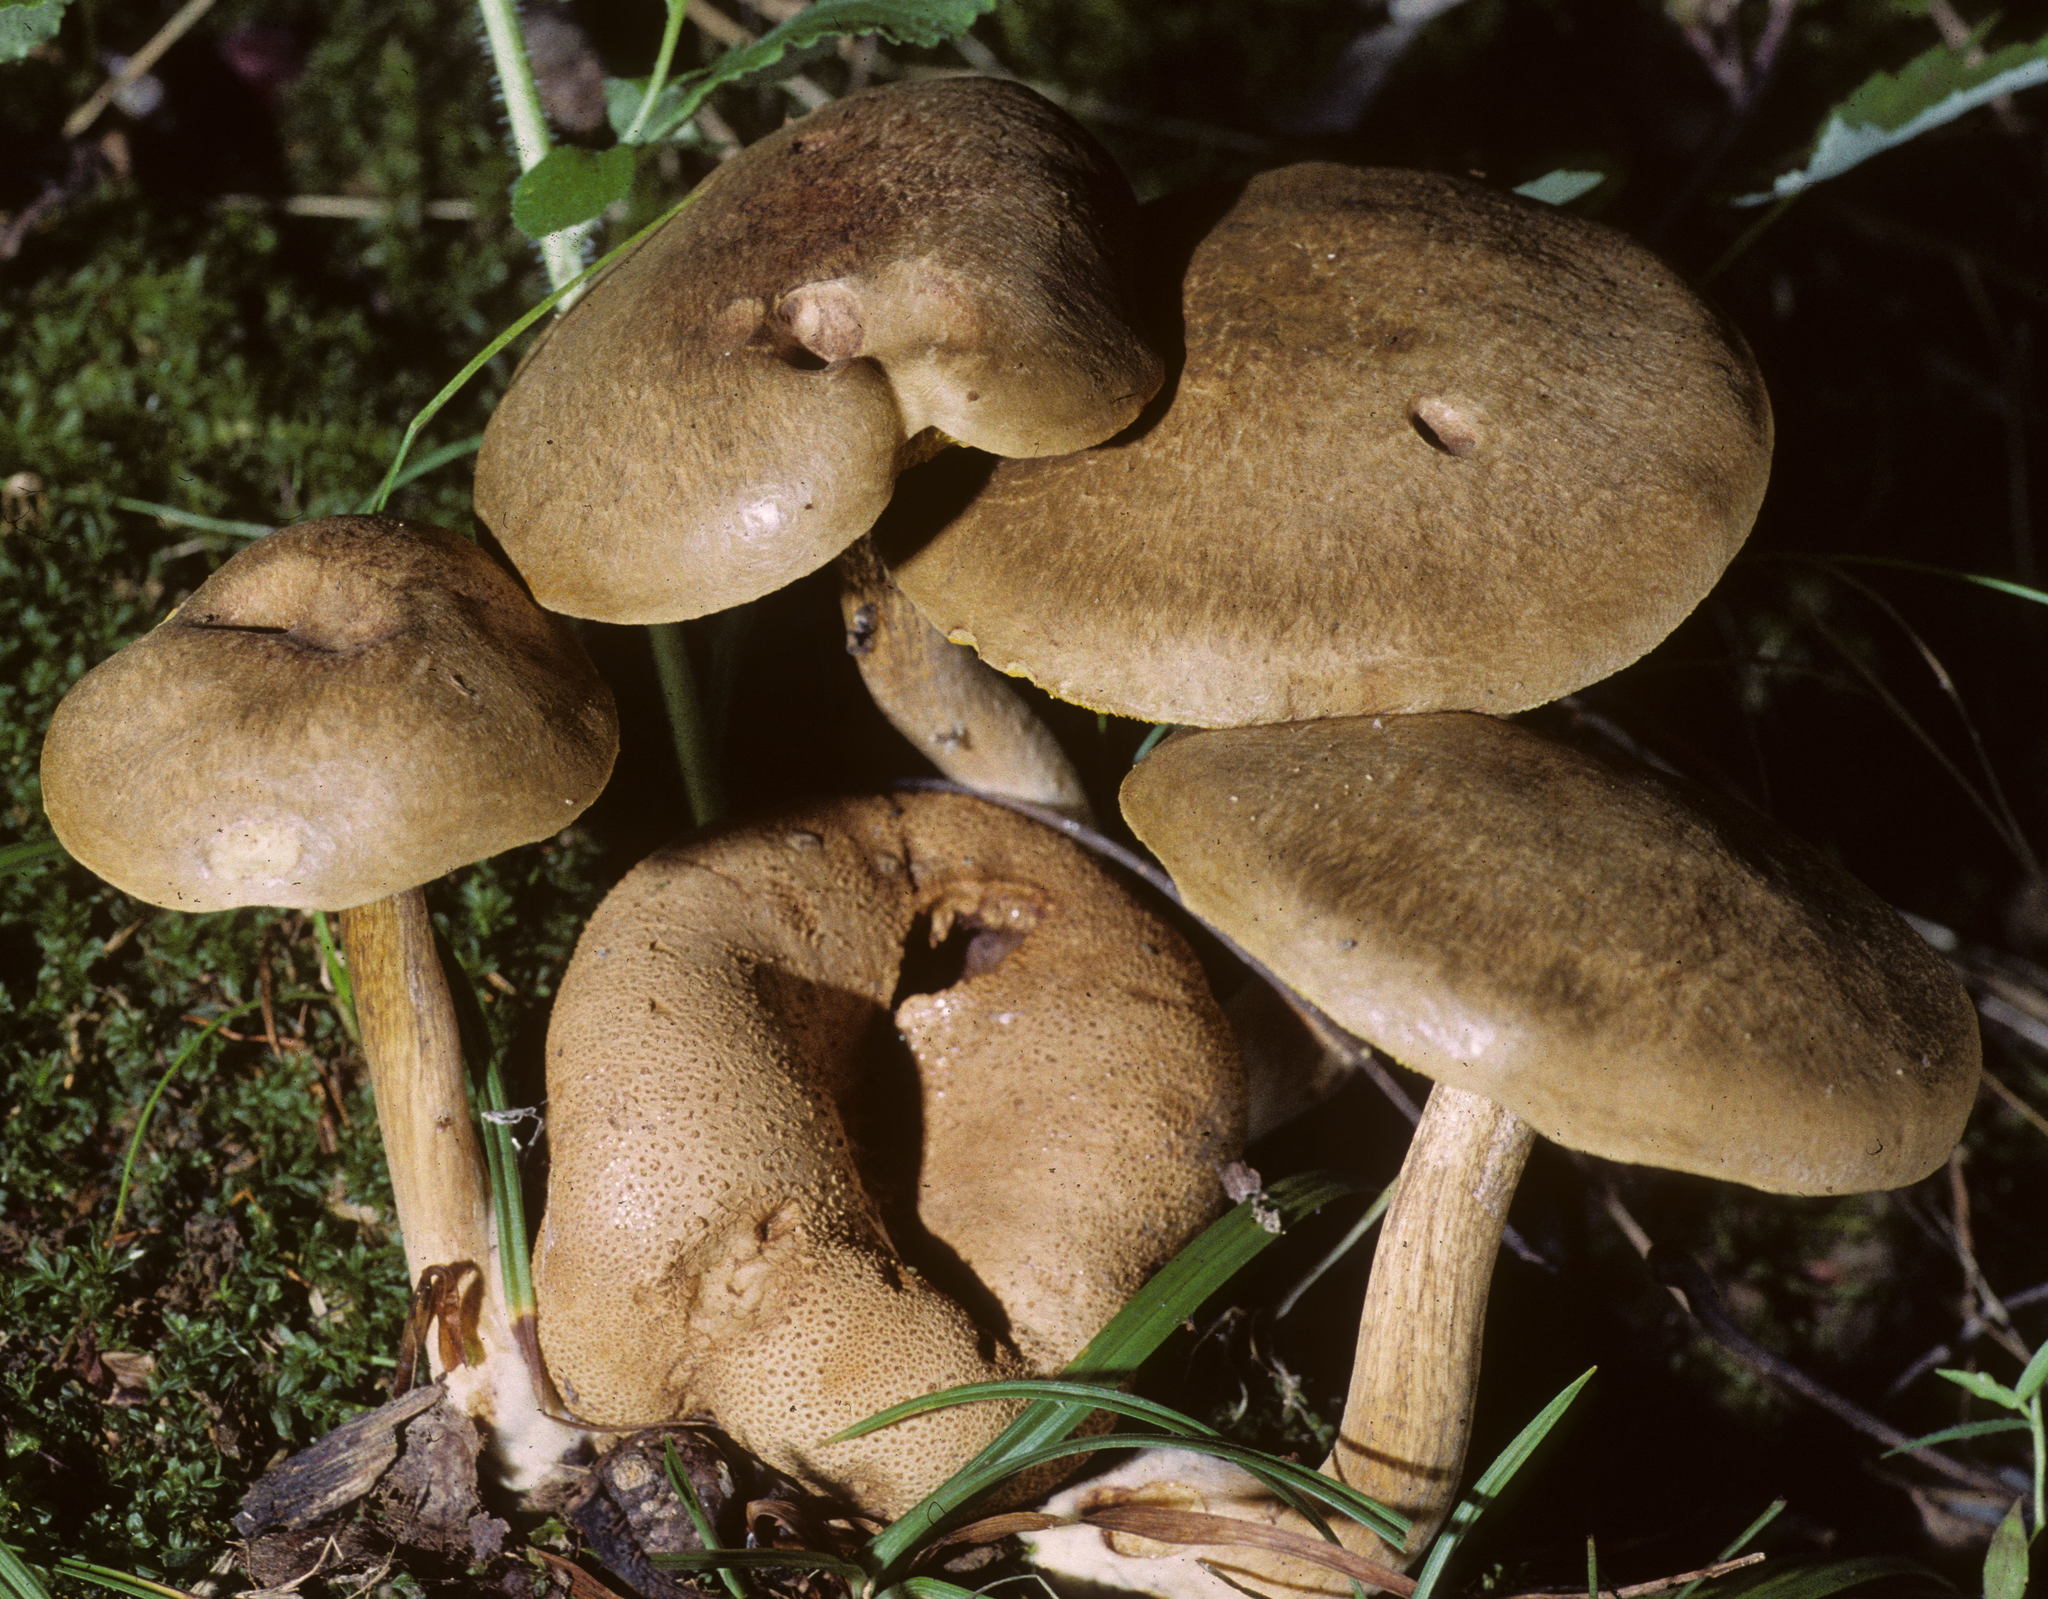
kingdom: Fungi
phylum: Basidiomycota
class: Agaricomycetes
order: Boletales
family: Boletaceae
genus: Pseudoboletus
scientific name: Pseudoboletus parasiticus
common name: Parasitic bolete
